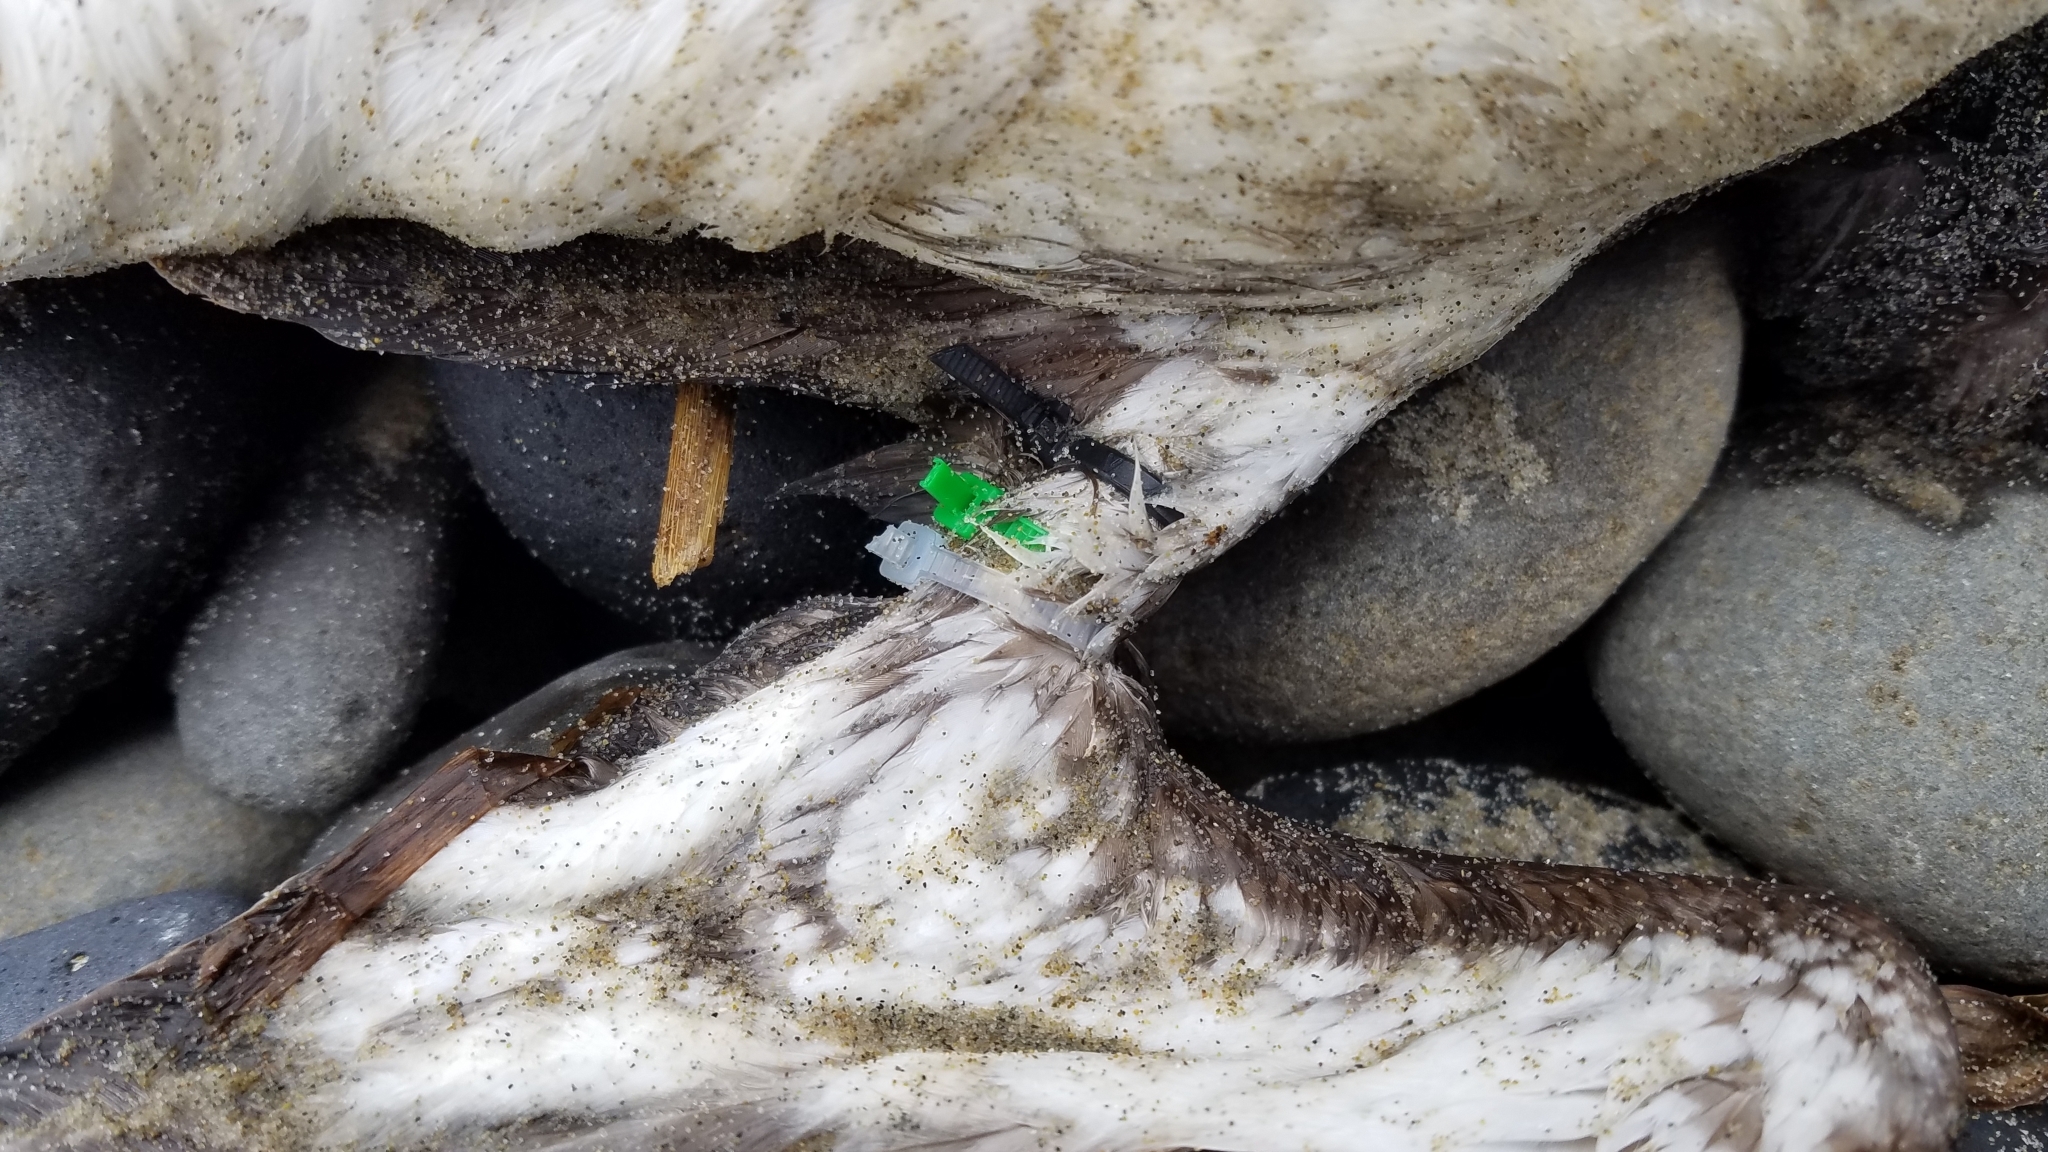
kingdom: Animalia
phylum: Chordata
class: Aves
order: Charadriiformes
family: Alcidae
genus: Uria
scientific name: Uria aalge
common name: Common murre
